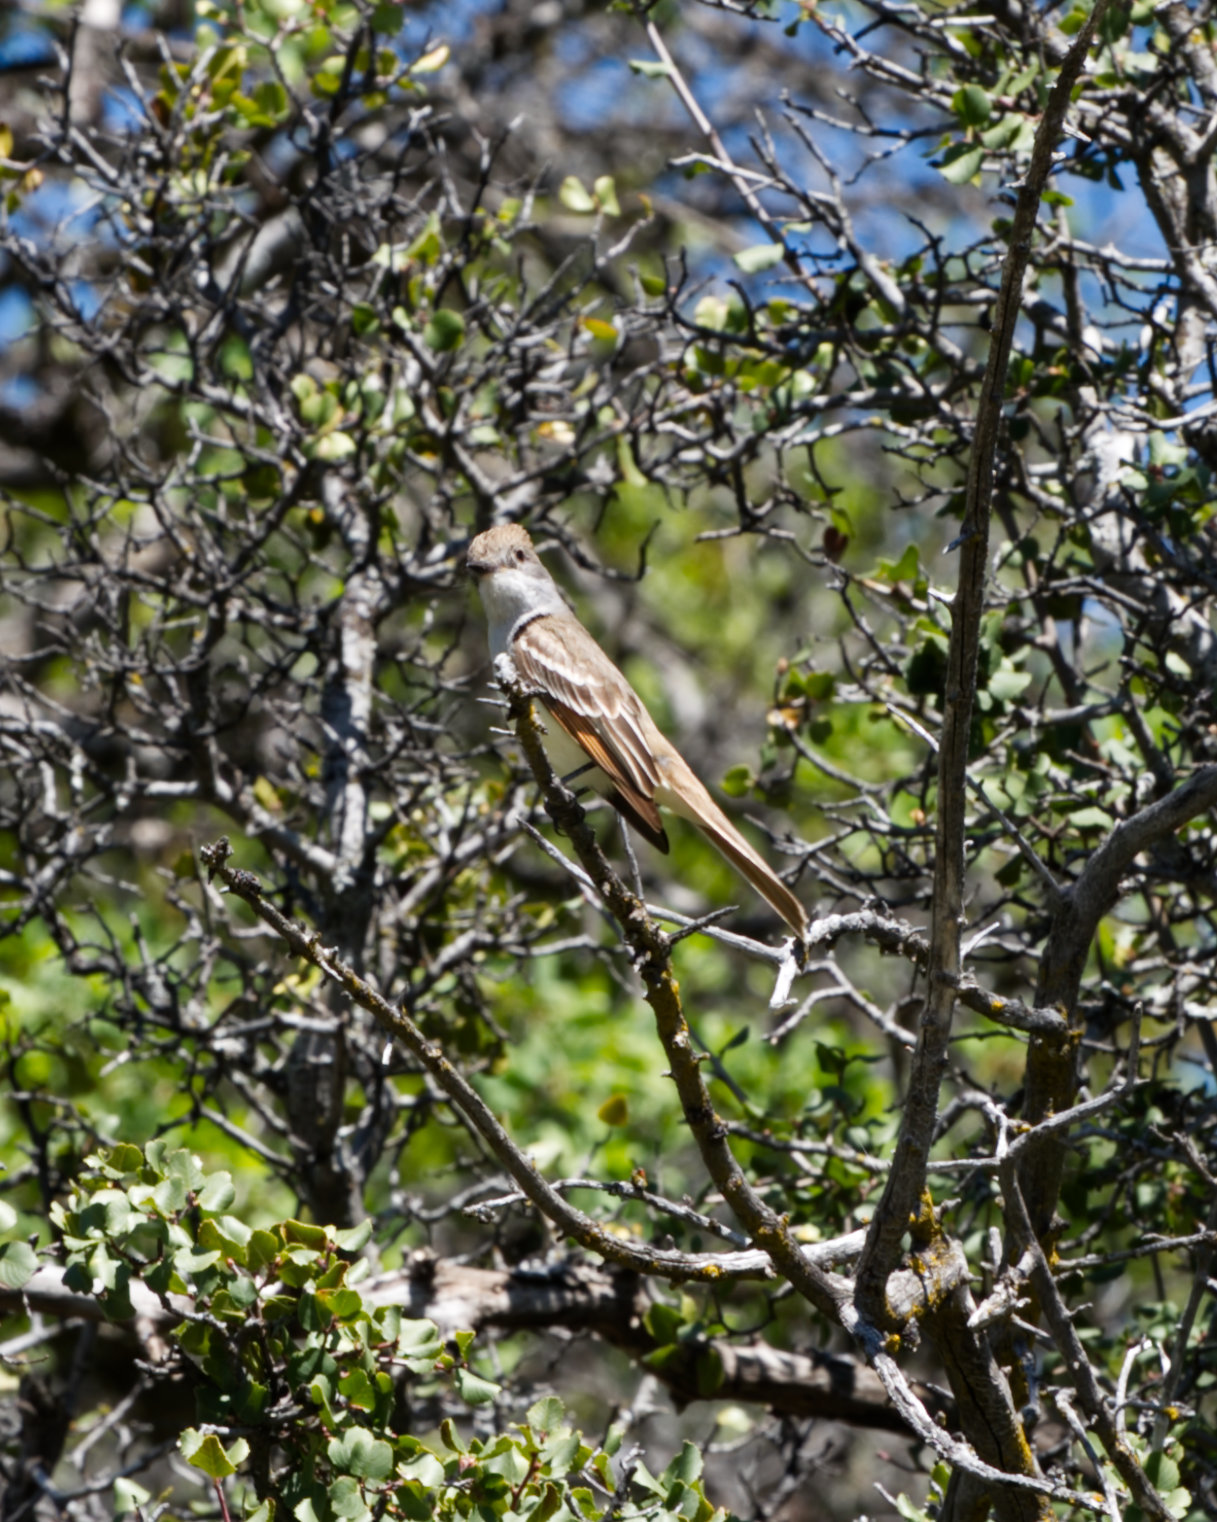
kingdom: Animalia
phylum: Chordata
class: Aves
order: Passeriformes
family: Tyrannidae
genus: Myiarchus
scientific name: Myiarchus cinerascens
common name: Ash-throated flycatcher
